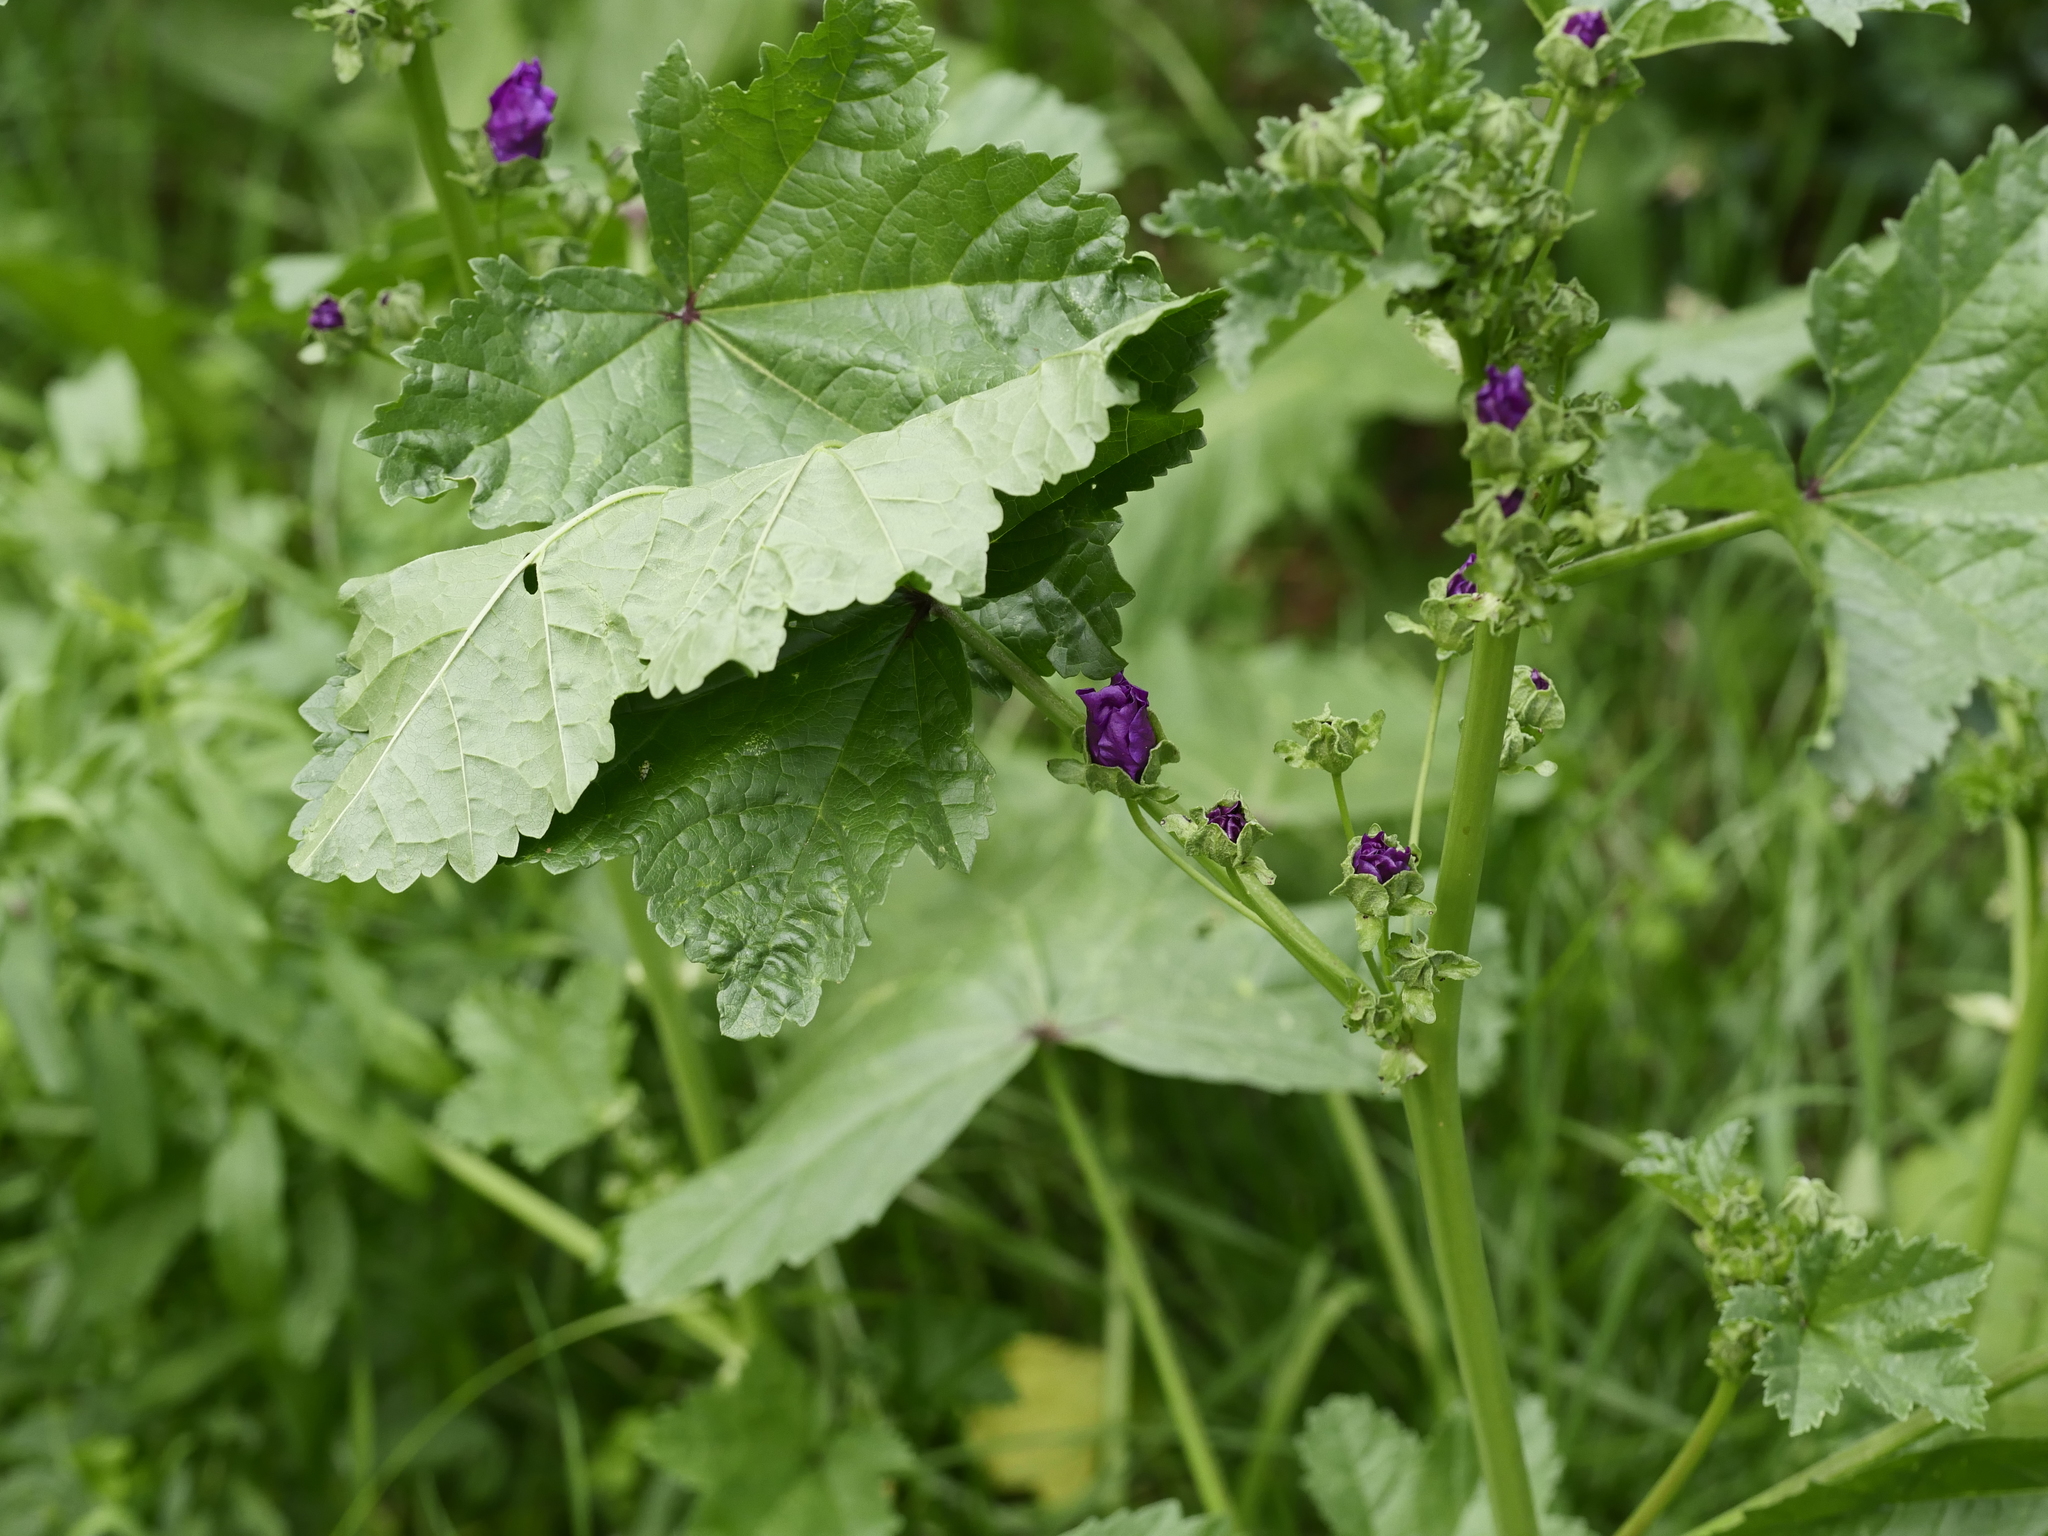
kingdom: Plantae
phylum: Tracheophyta
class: Magnoliopsida
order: Malvales
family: Malvaceae
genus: Malva
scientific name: Malva sylvestris
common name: Common mallow
